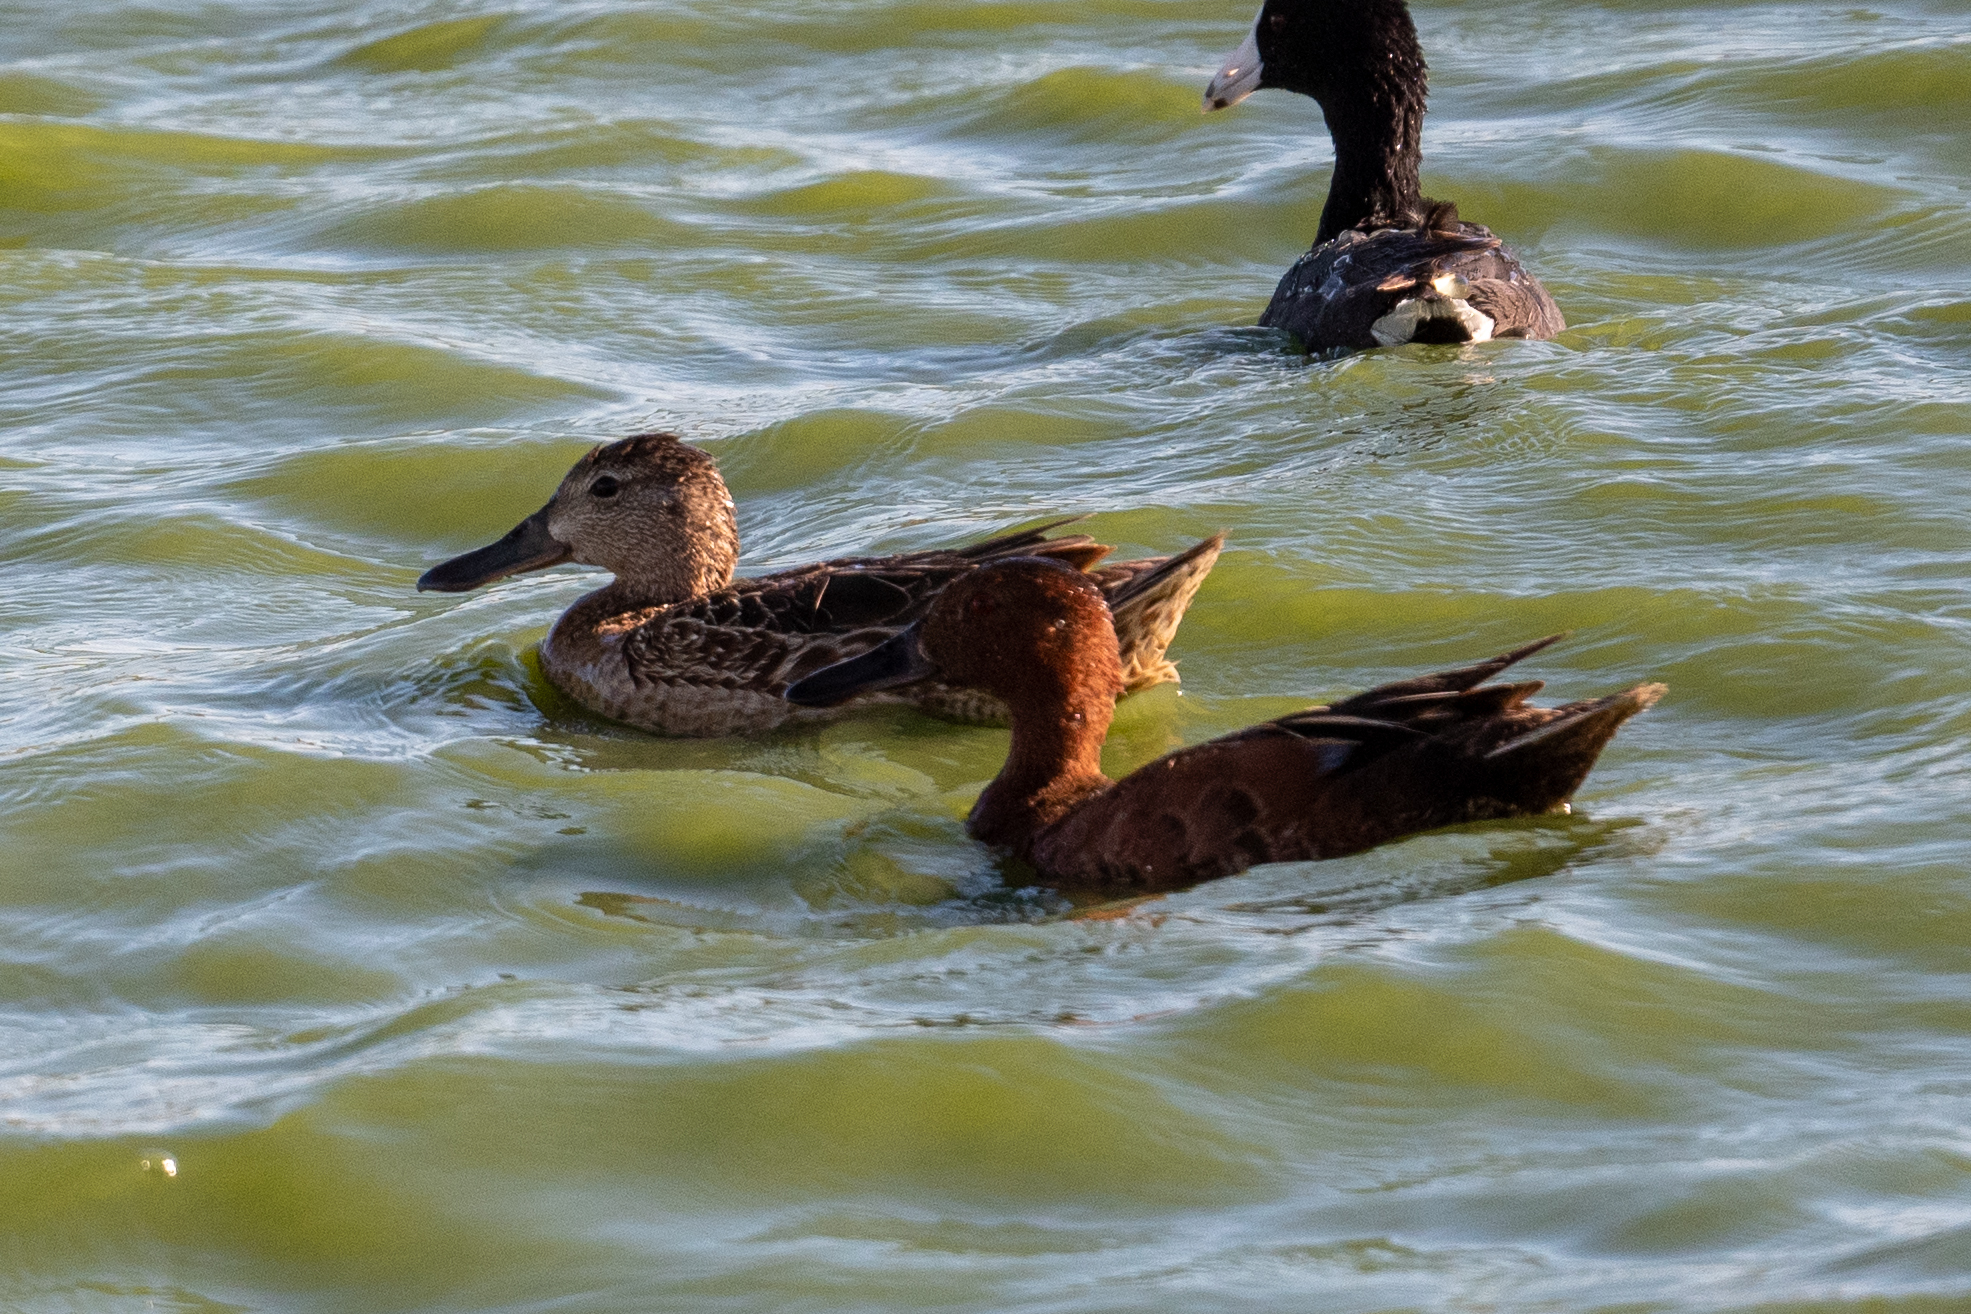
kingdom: Animalia
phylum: Chordata
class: Aves
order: Anseriformes
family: Anatidae
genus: Spatula
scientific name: Spatula cyanoptera
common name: Cinnamon teal
